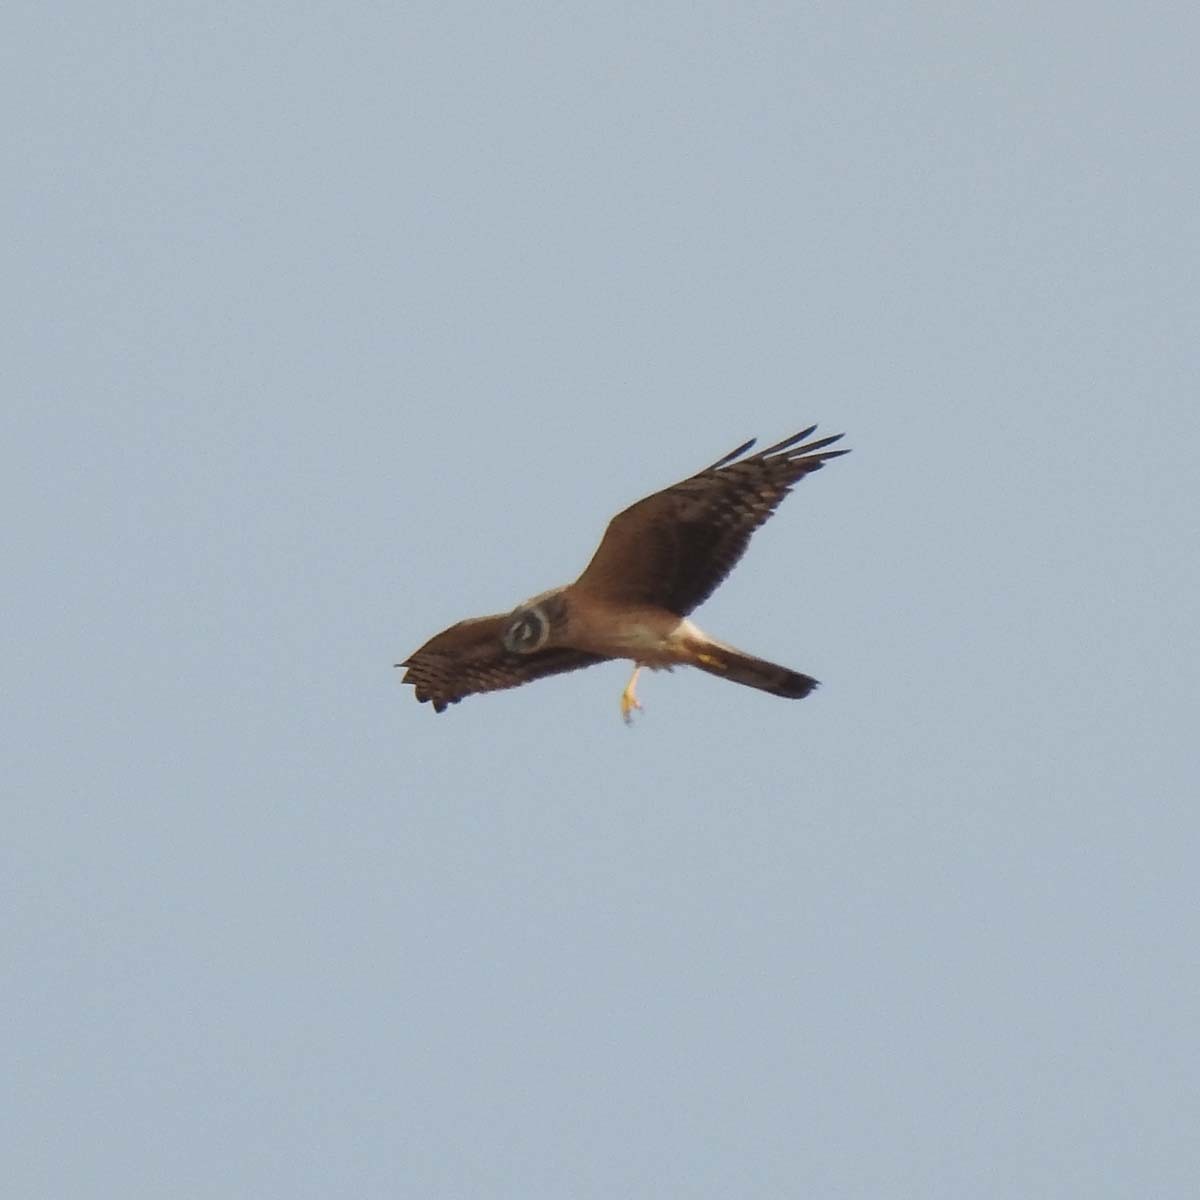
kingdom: Animalia
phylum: Chordata
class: Aves
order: Accipitriformes
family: Accipitridae
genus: Circus
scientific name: Circus macrourus
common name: Pallid harrier
